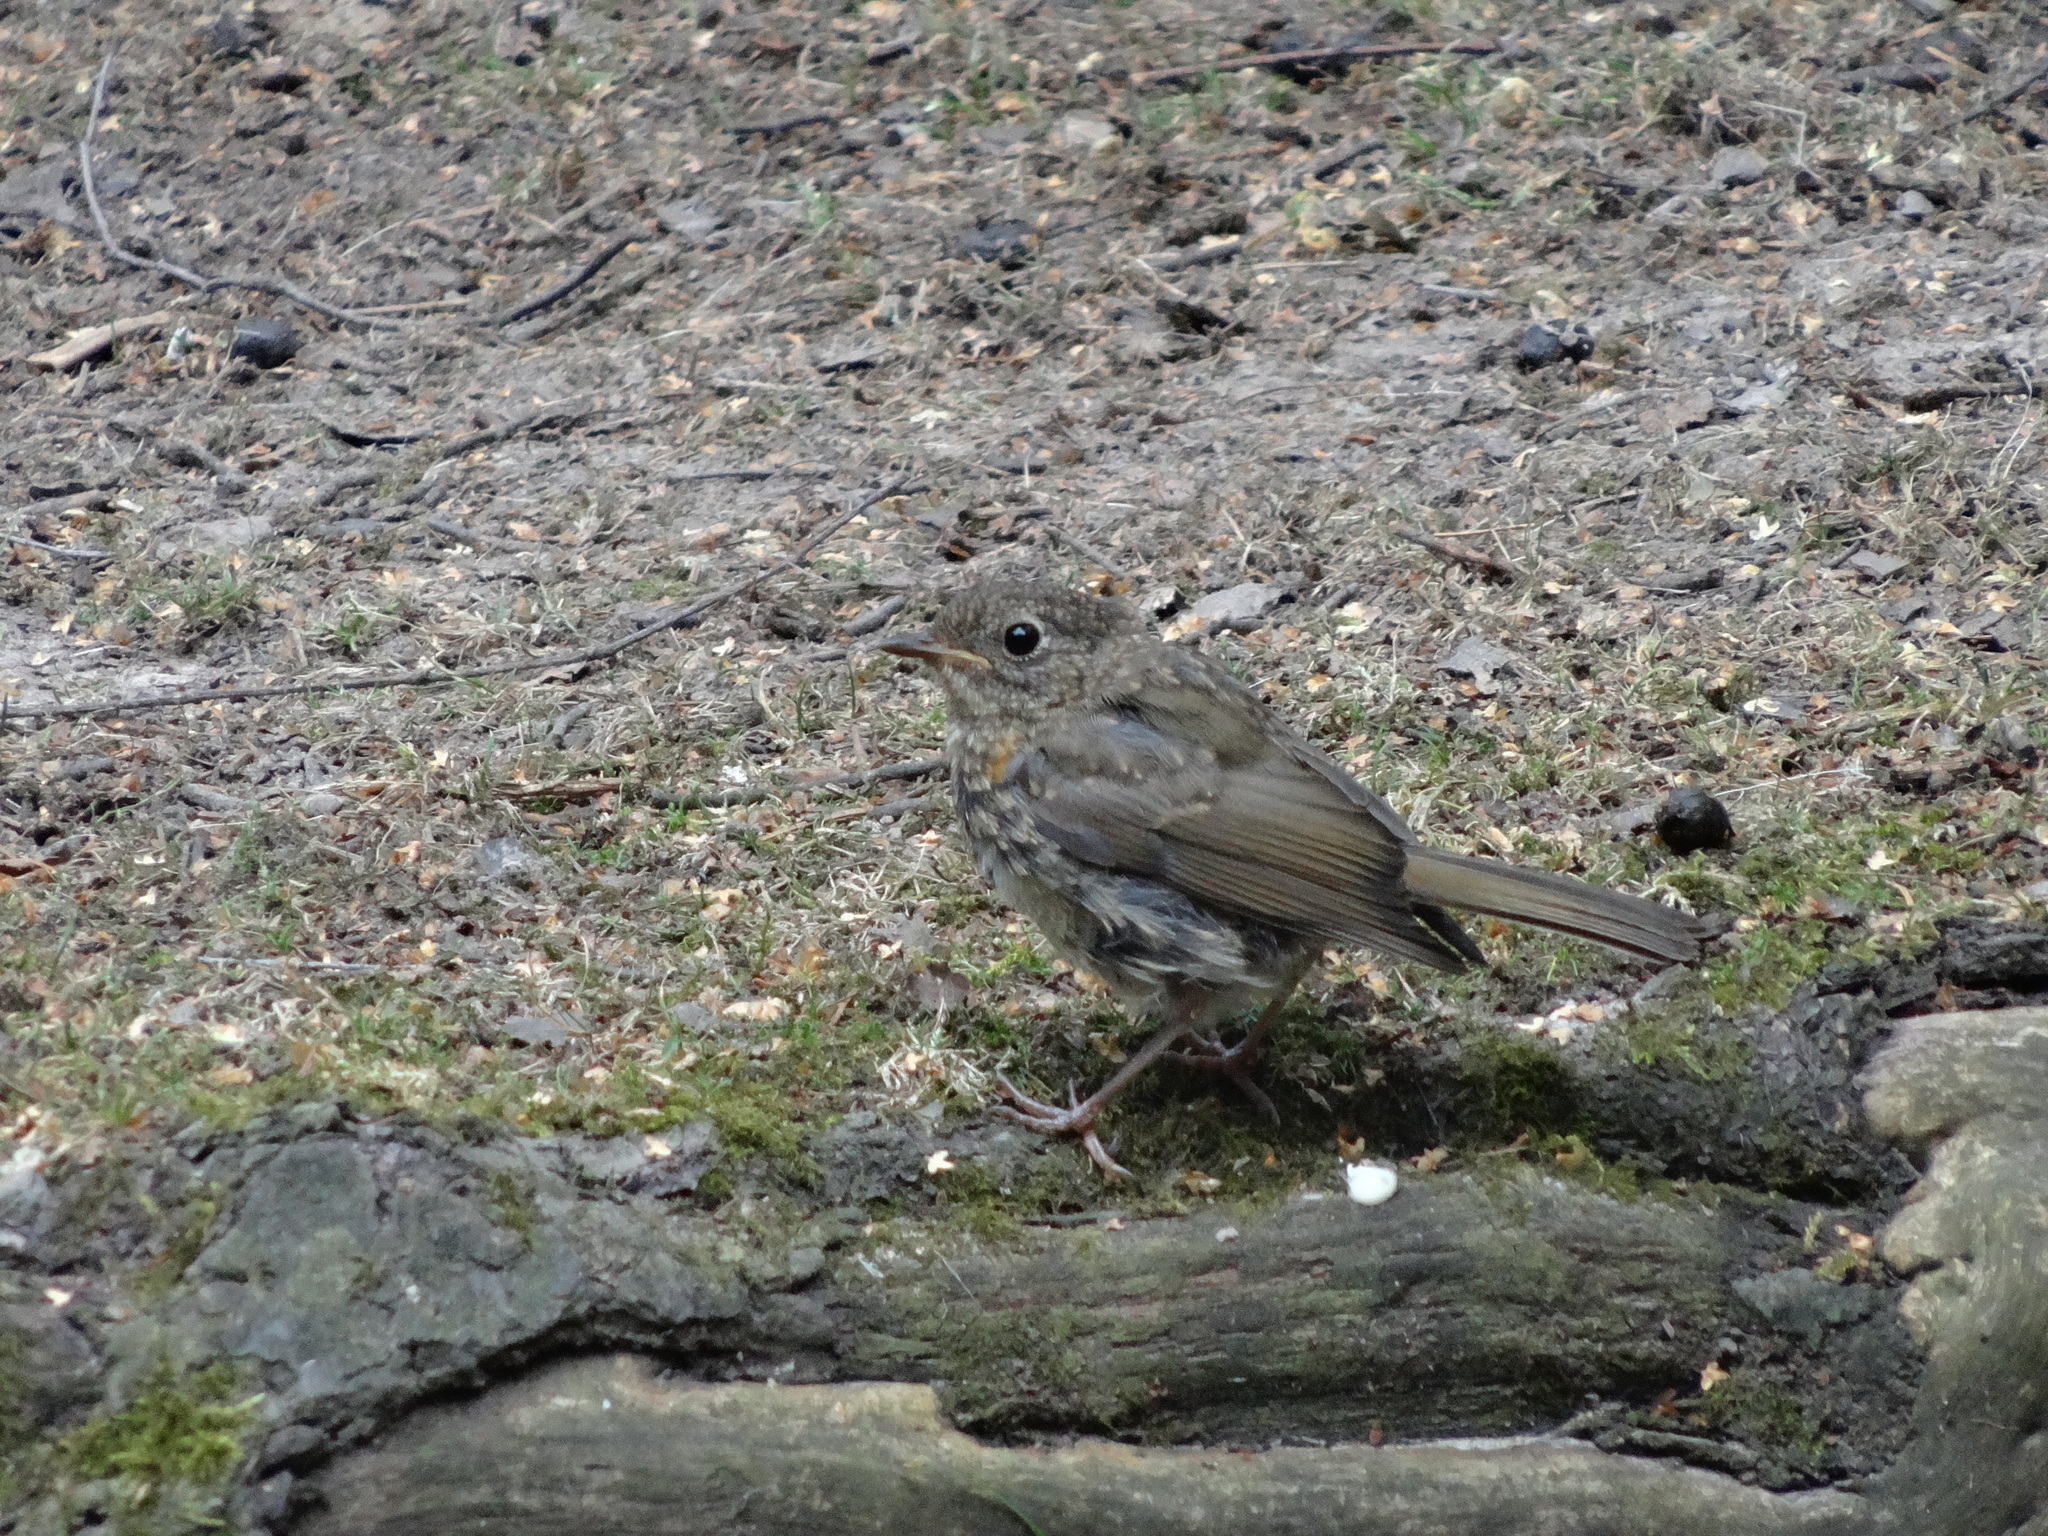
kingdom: Animalia
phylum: Chordata
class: Aves
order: Passeriformes
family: Muscicapidae
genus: Erithacus
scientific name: Erithacus rubecula
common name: European robin
